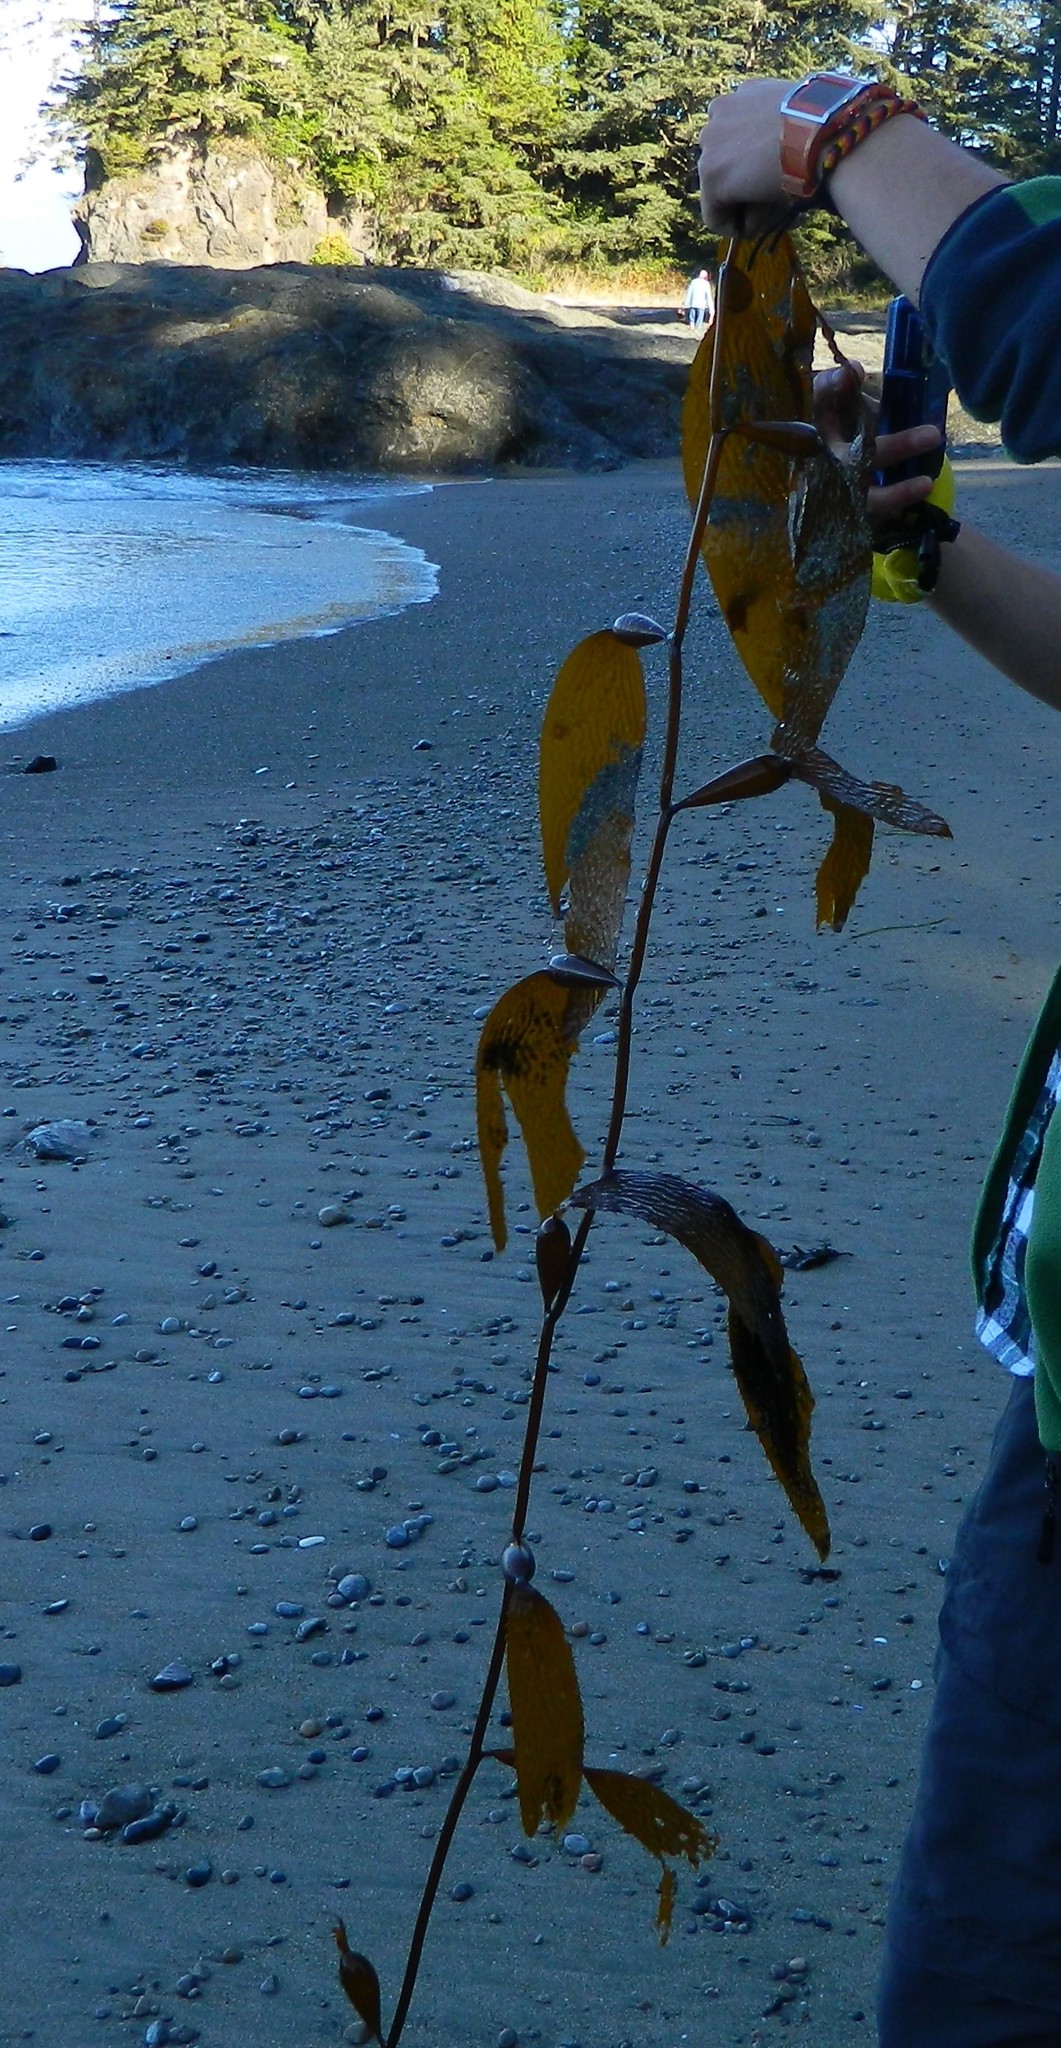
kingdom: Chromista
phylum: Ochrophyta
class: Phaeophyceae
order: Laminariales
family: Laminariaceae
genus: Macrocystis
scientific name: Macrocystis pyrifera
